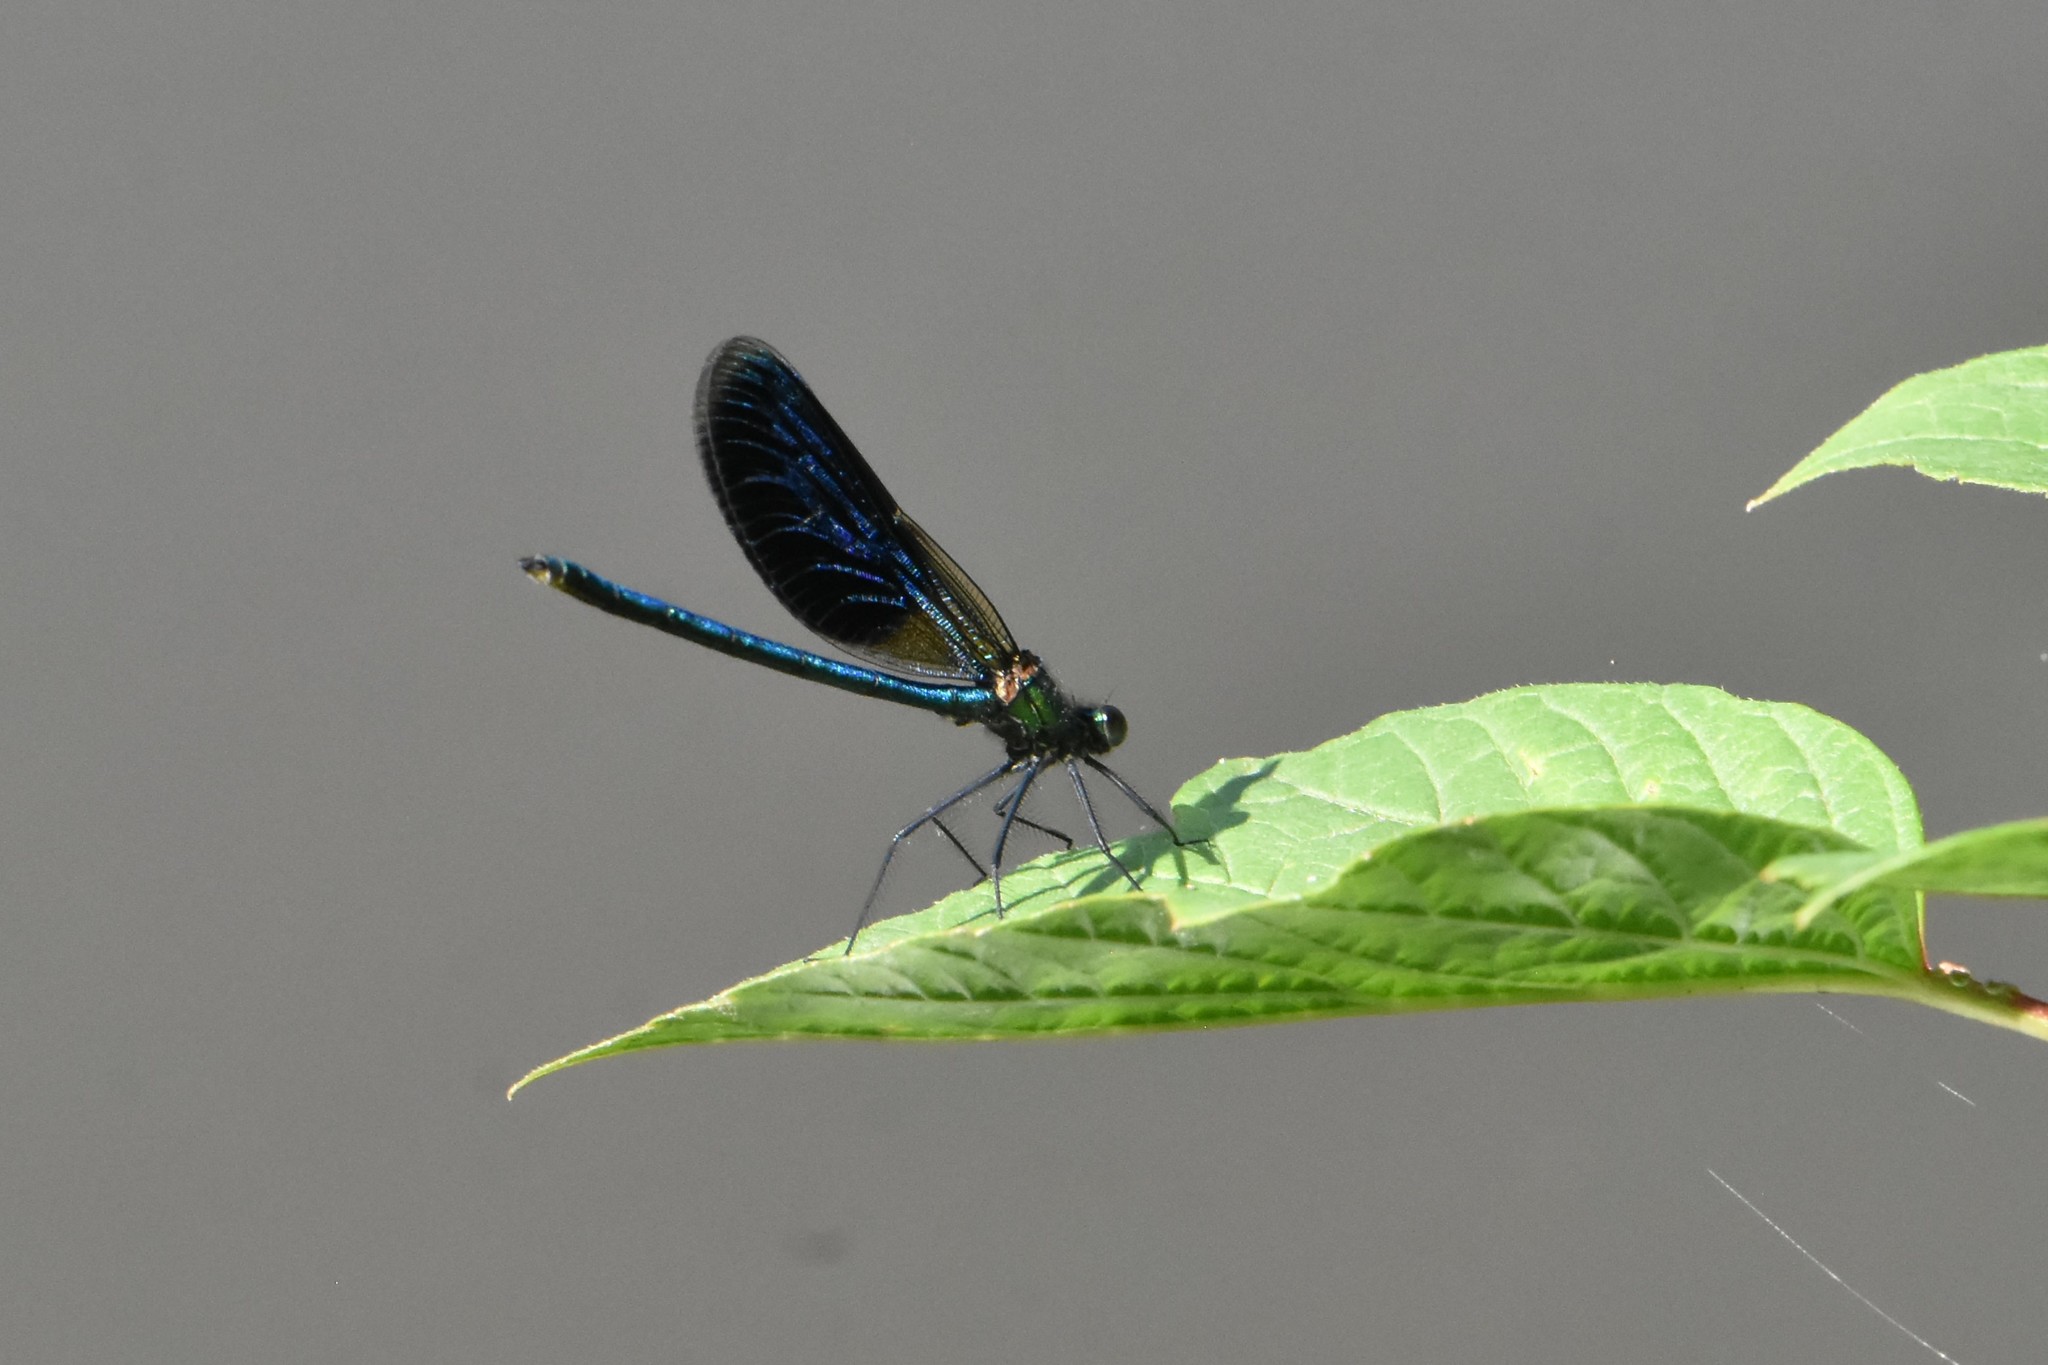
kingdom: Animalia
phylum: Arthropoda
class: Insecta
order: Odonata
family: Calopterygidae
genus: Calopteryx
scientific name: Calopteryx splendens
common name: Banded demoiselle
